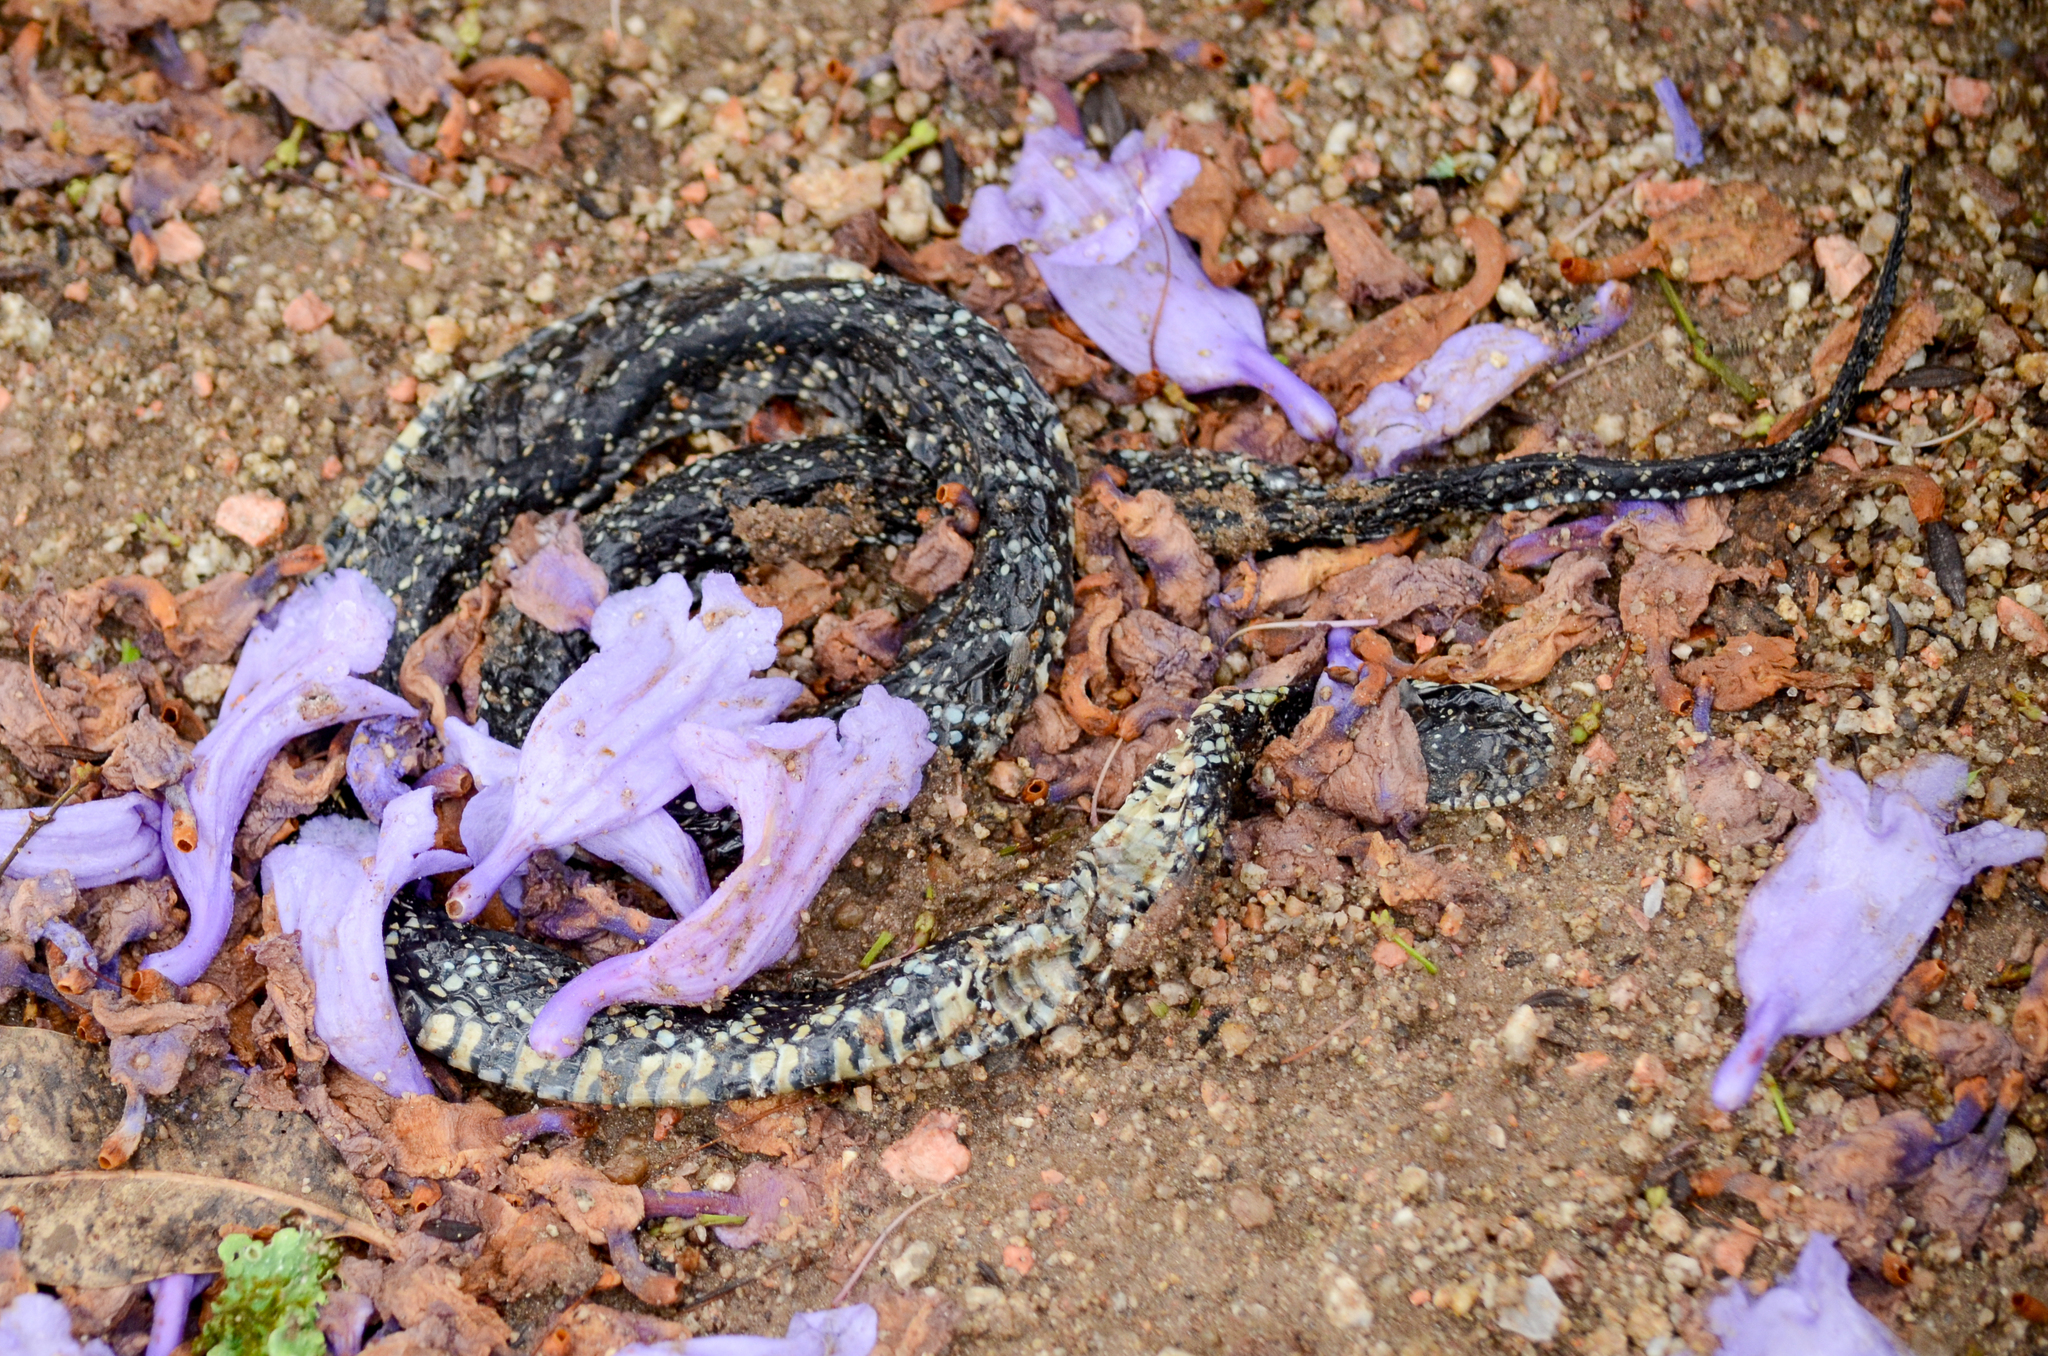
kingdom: Animalia
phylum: Chordata
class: Squamata
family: Colubridae
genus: Erythrolamprus
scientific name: Erythrolamprus poecilogyrus
